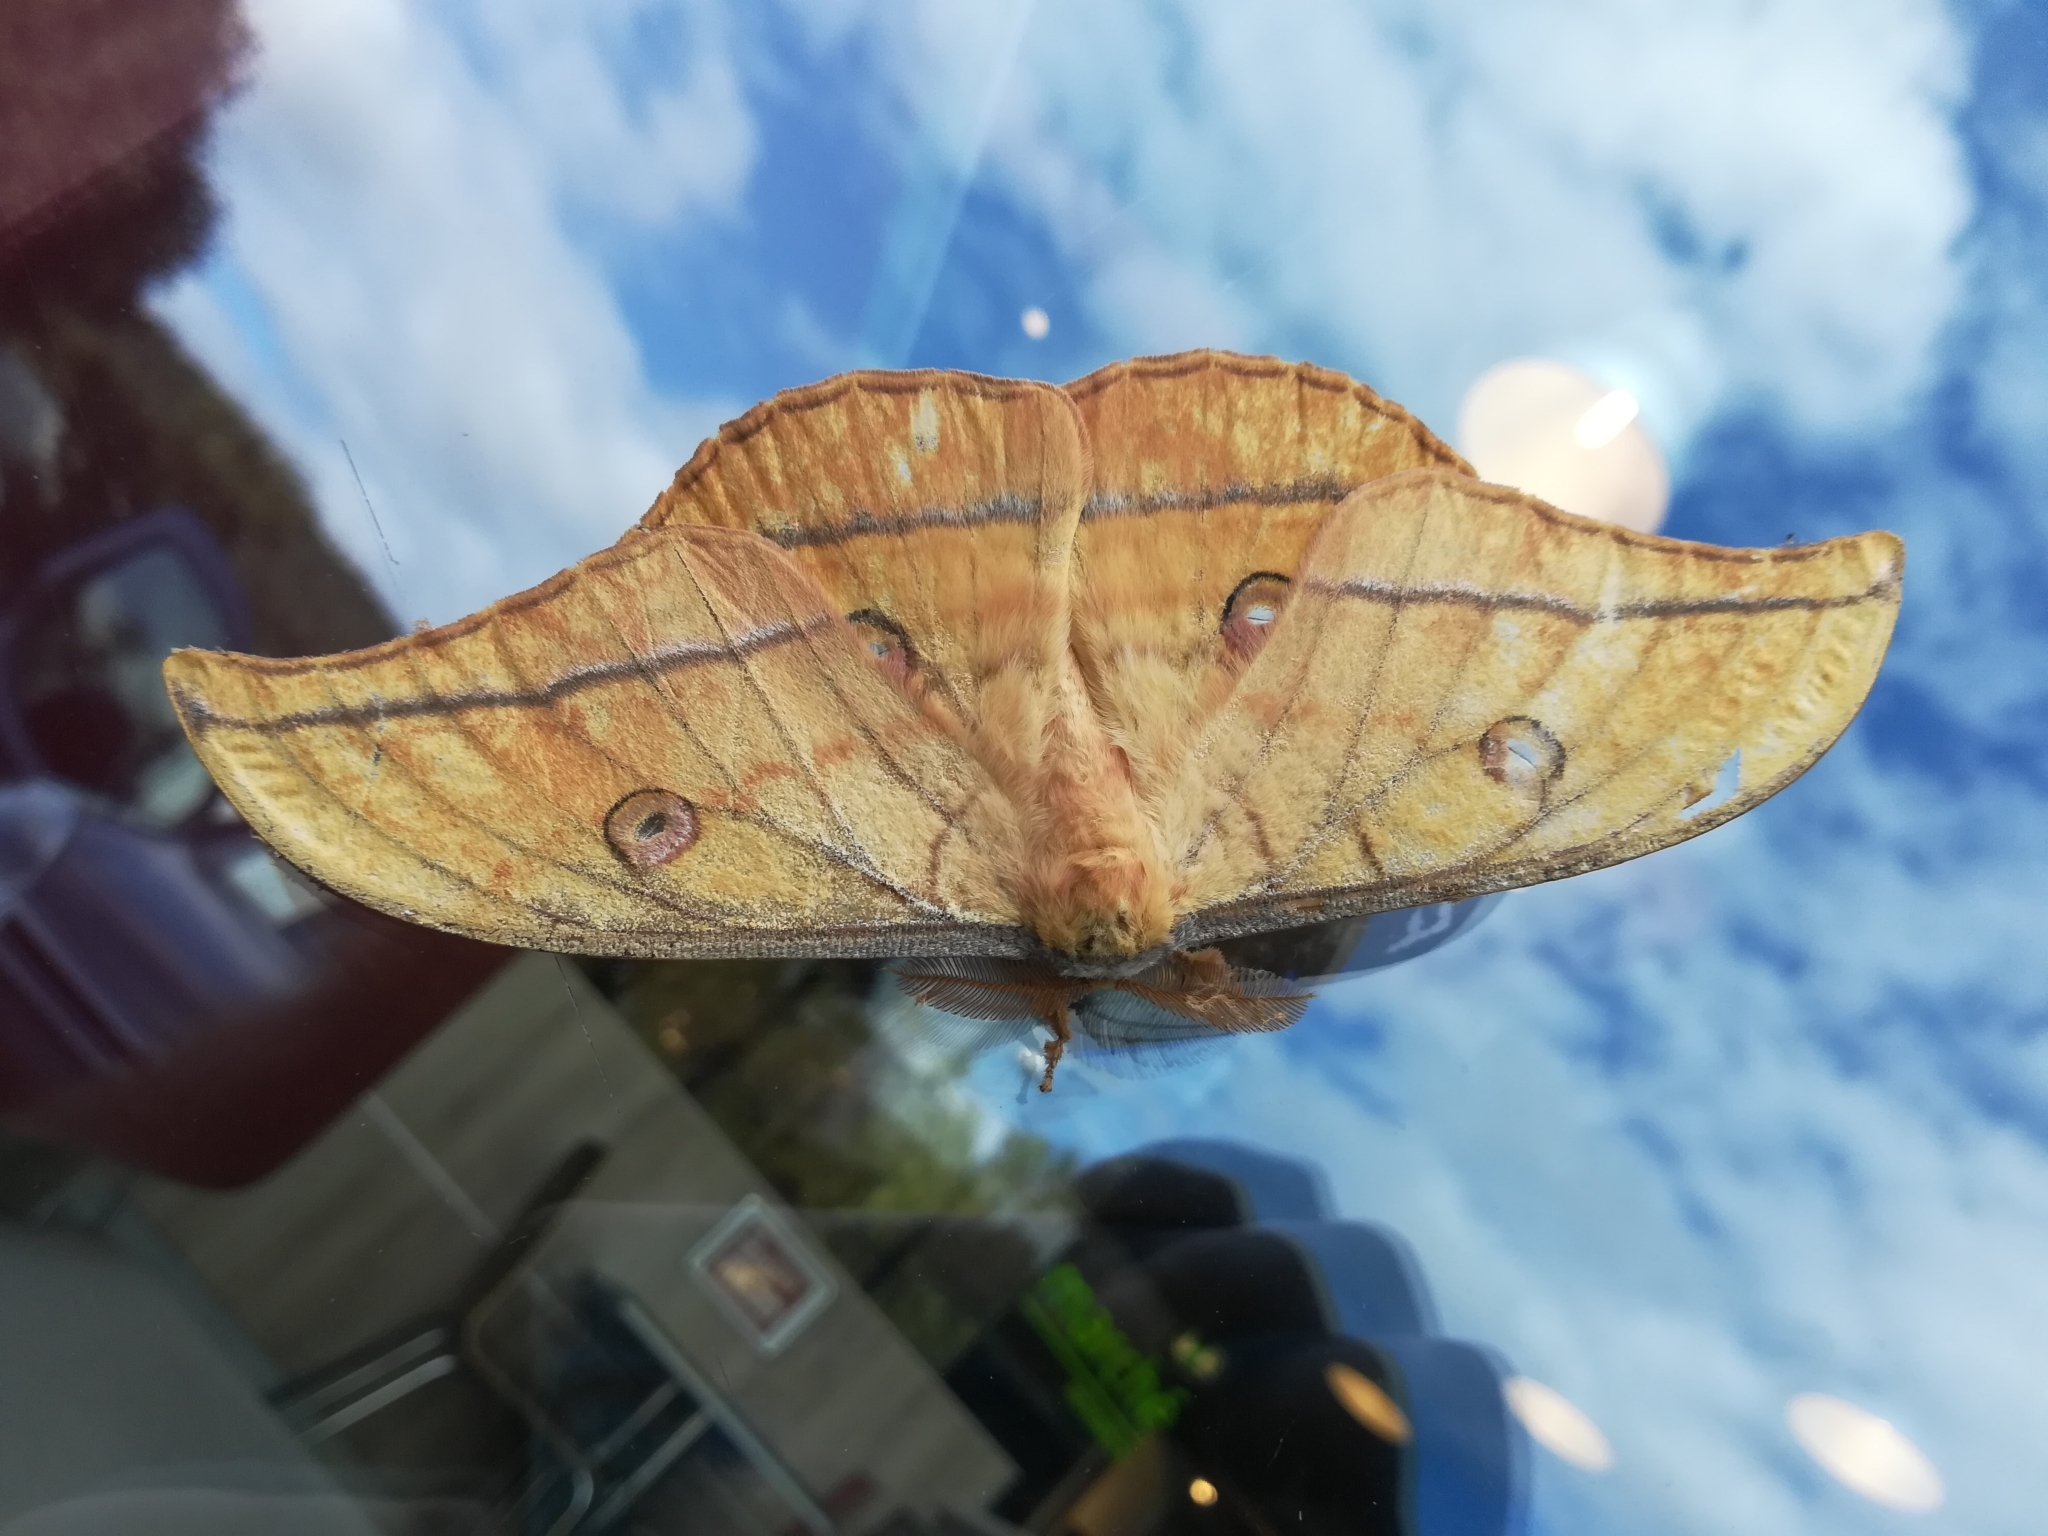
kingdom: Animalia
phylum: Arthropoda
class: Insecta
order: Lepidoptera
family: Saturniidae
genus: Antheraea
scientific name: Antheraea yamamai
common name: Japanese oak silk moth
